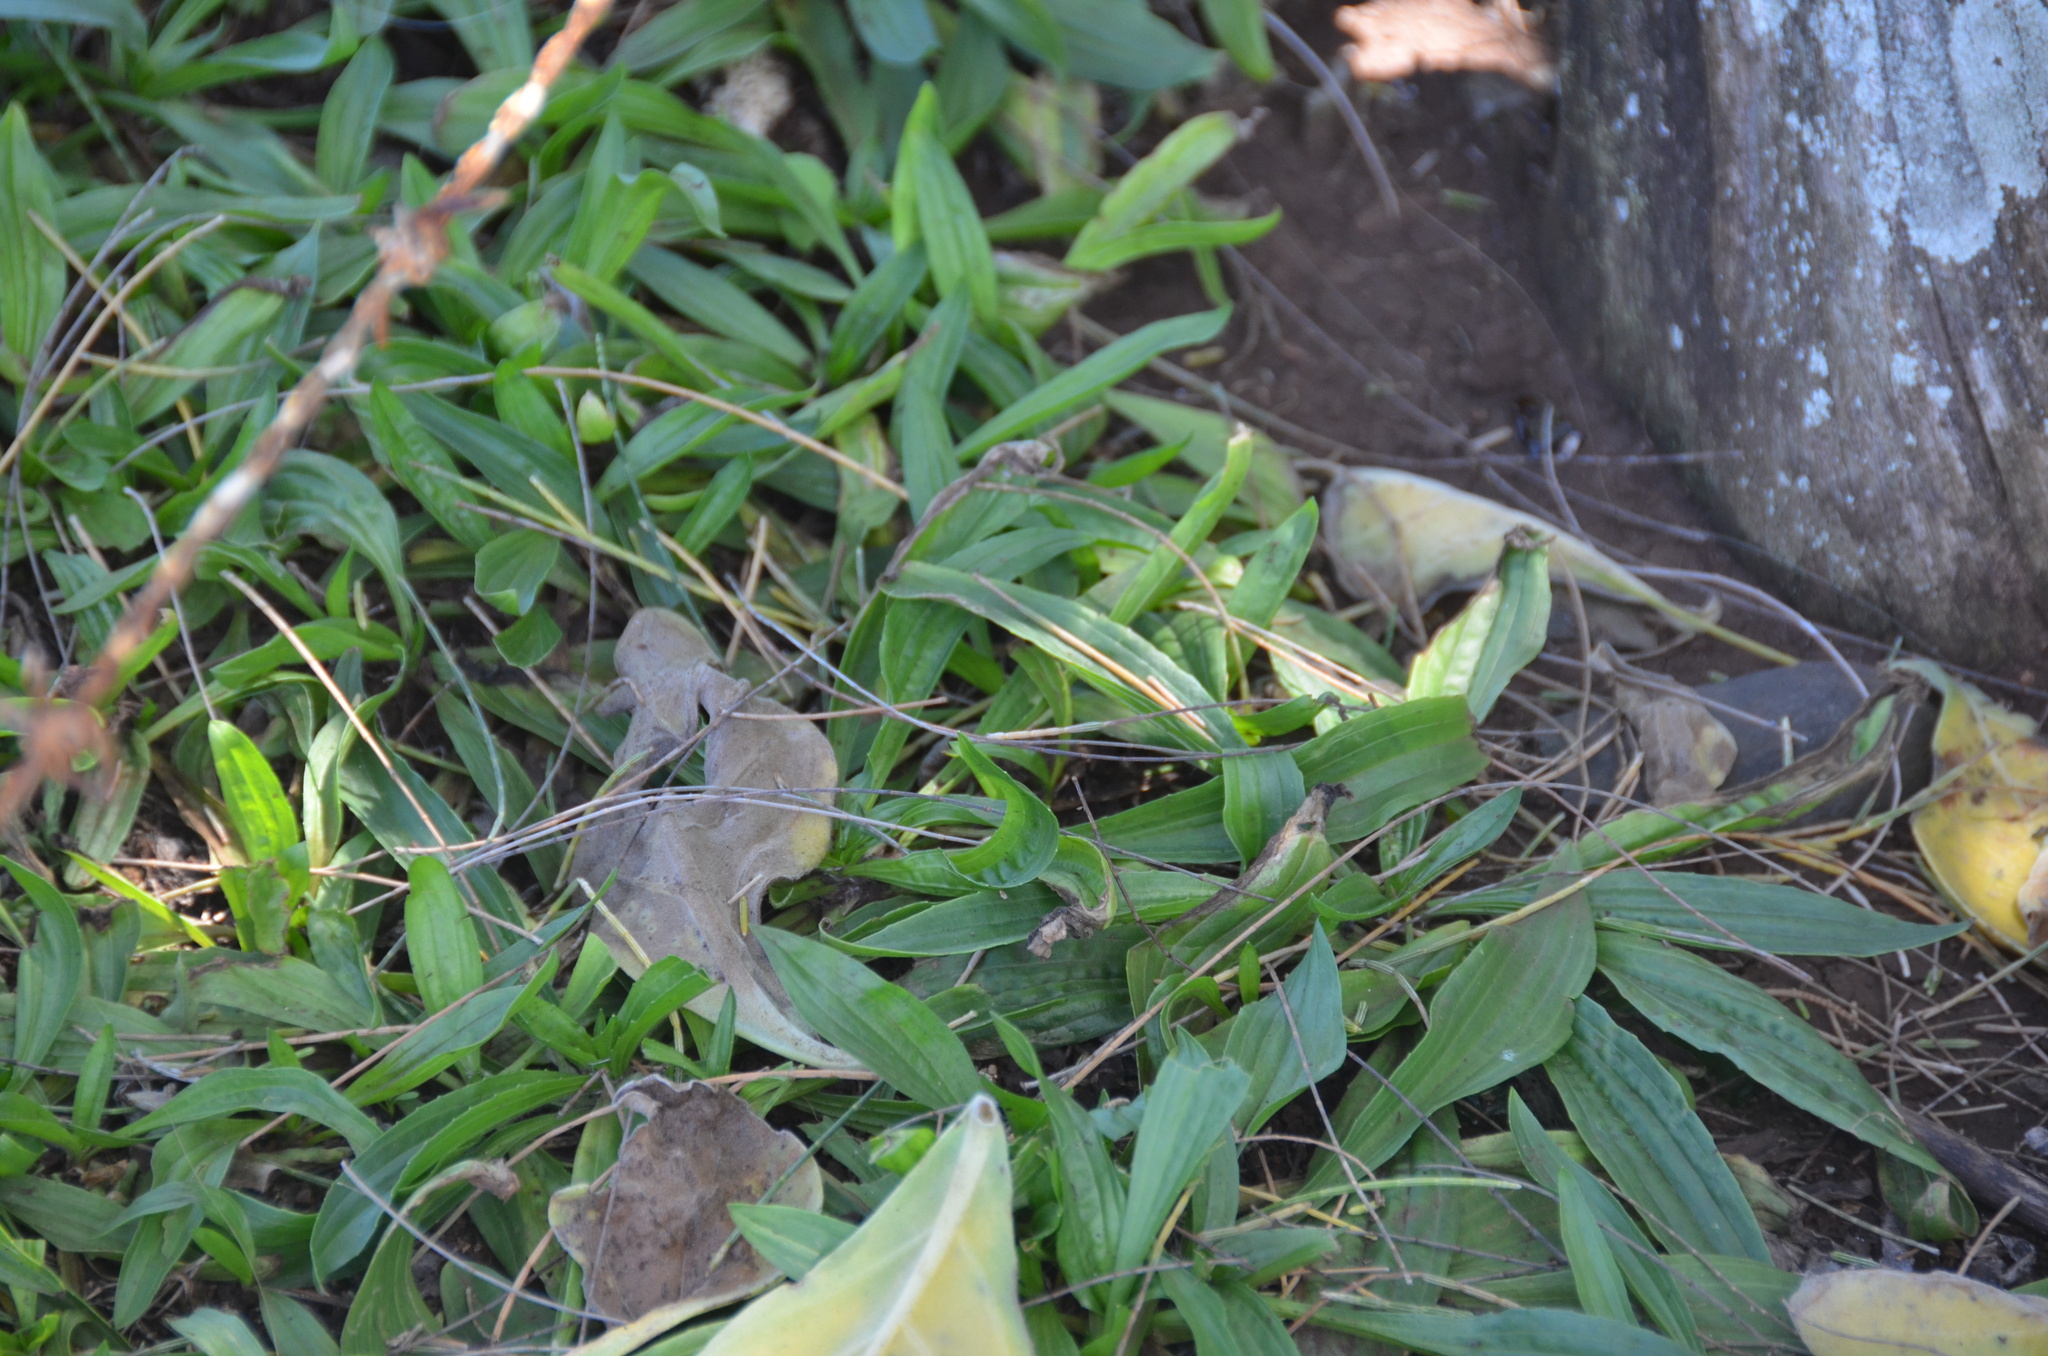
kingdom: Plantae
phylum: Tracheophyta
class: Magnoliopsida
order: Lamiales
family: Plantaginaceae
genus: Plantago
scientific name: Plantago lanceolata
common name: Ribwort plantain
